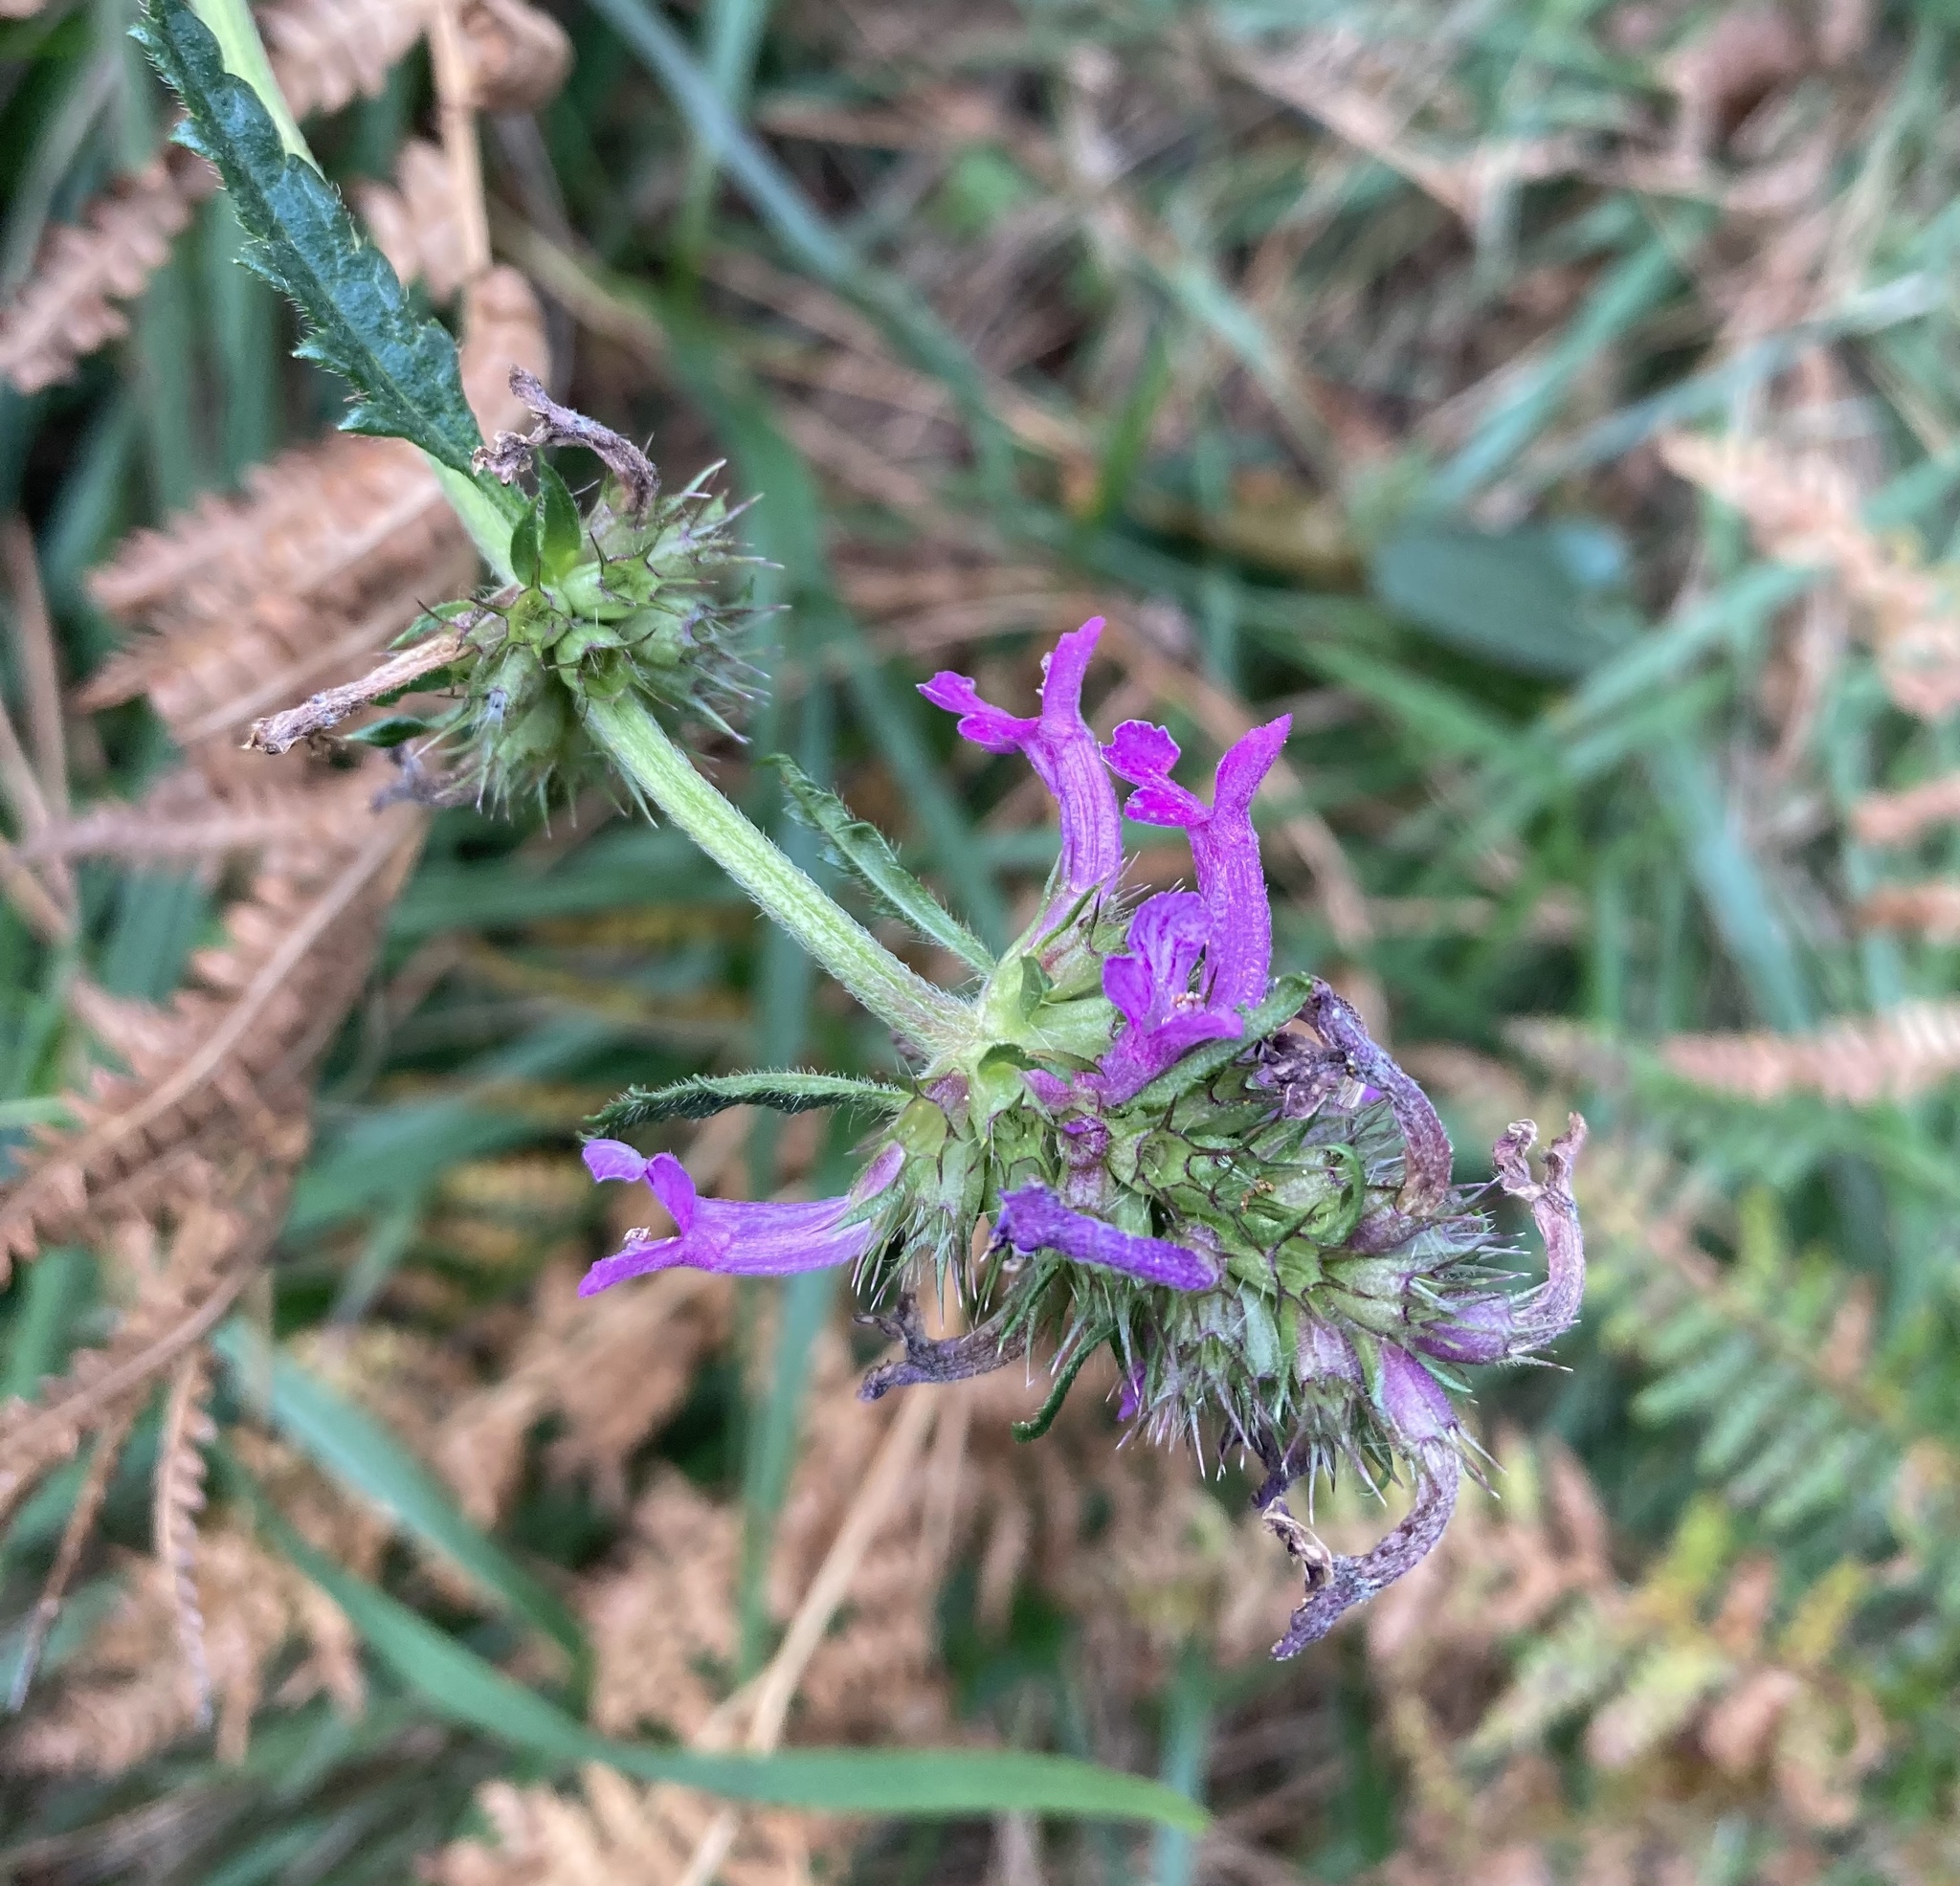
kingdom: Plantae
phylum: Tracheophyta
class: Magnoliopsida
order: Lamiales
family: Lamiaceae
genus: Betonica
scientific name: Betonica officinalis
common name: Bishop's-wort
